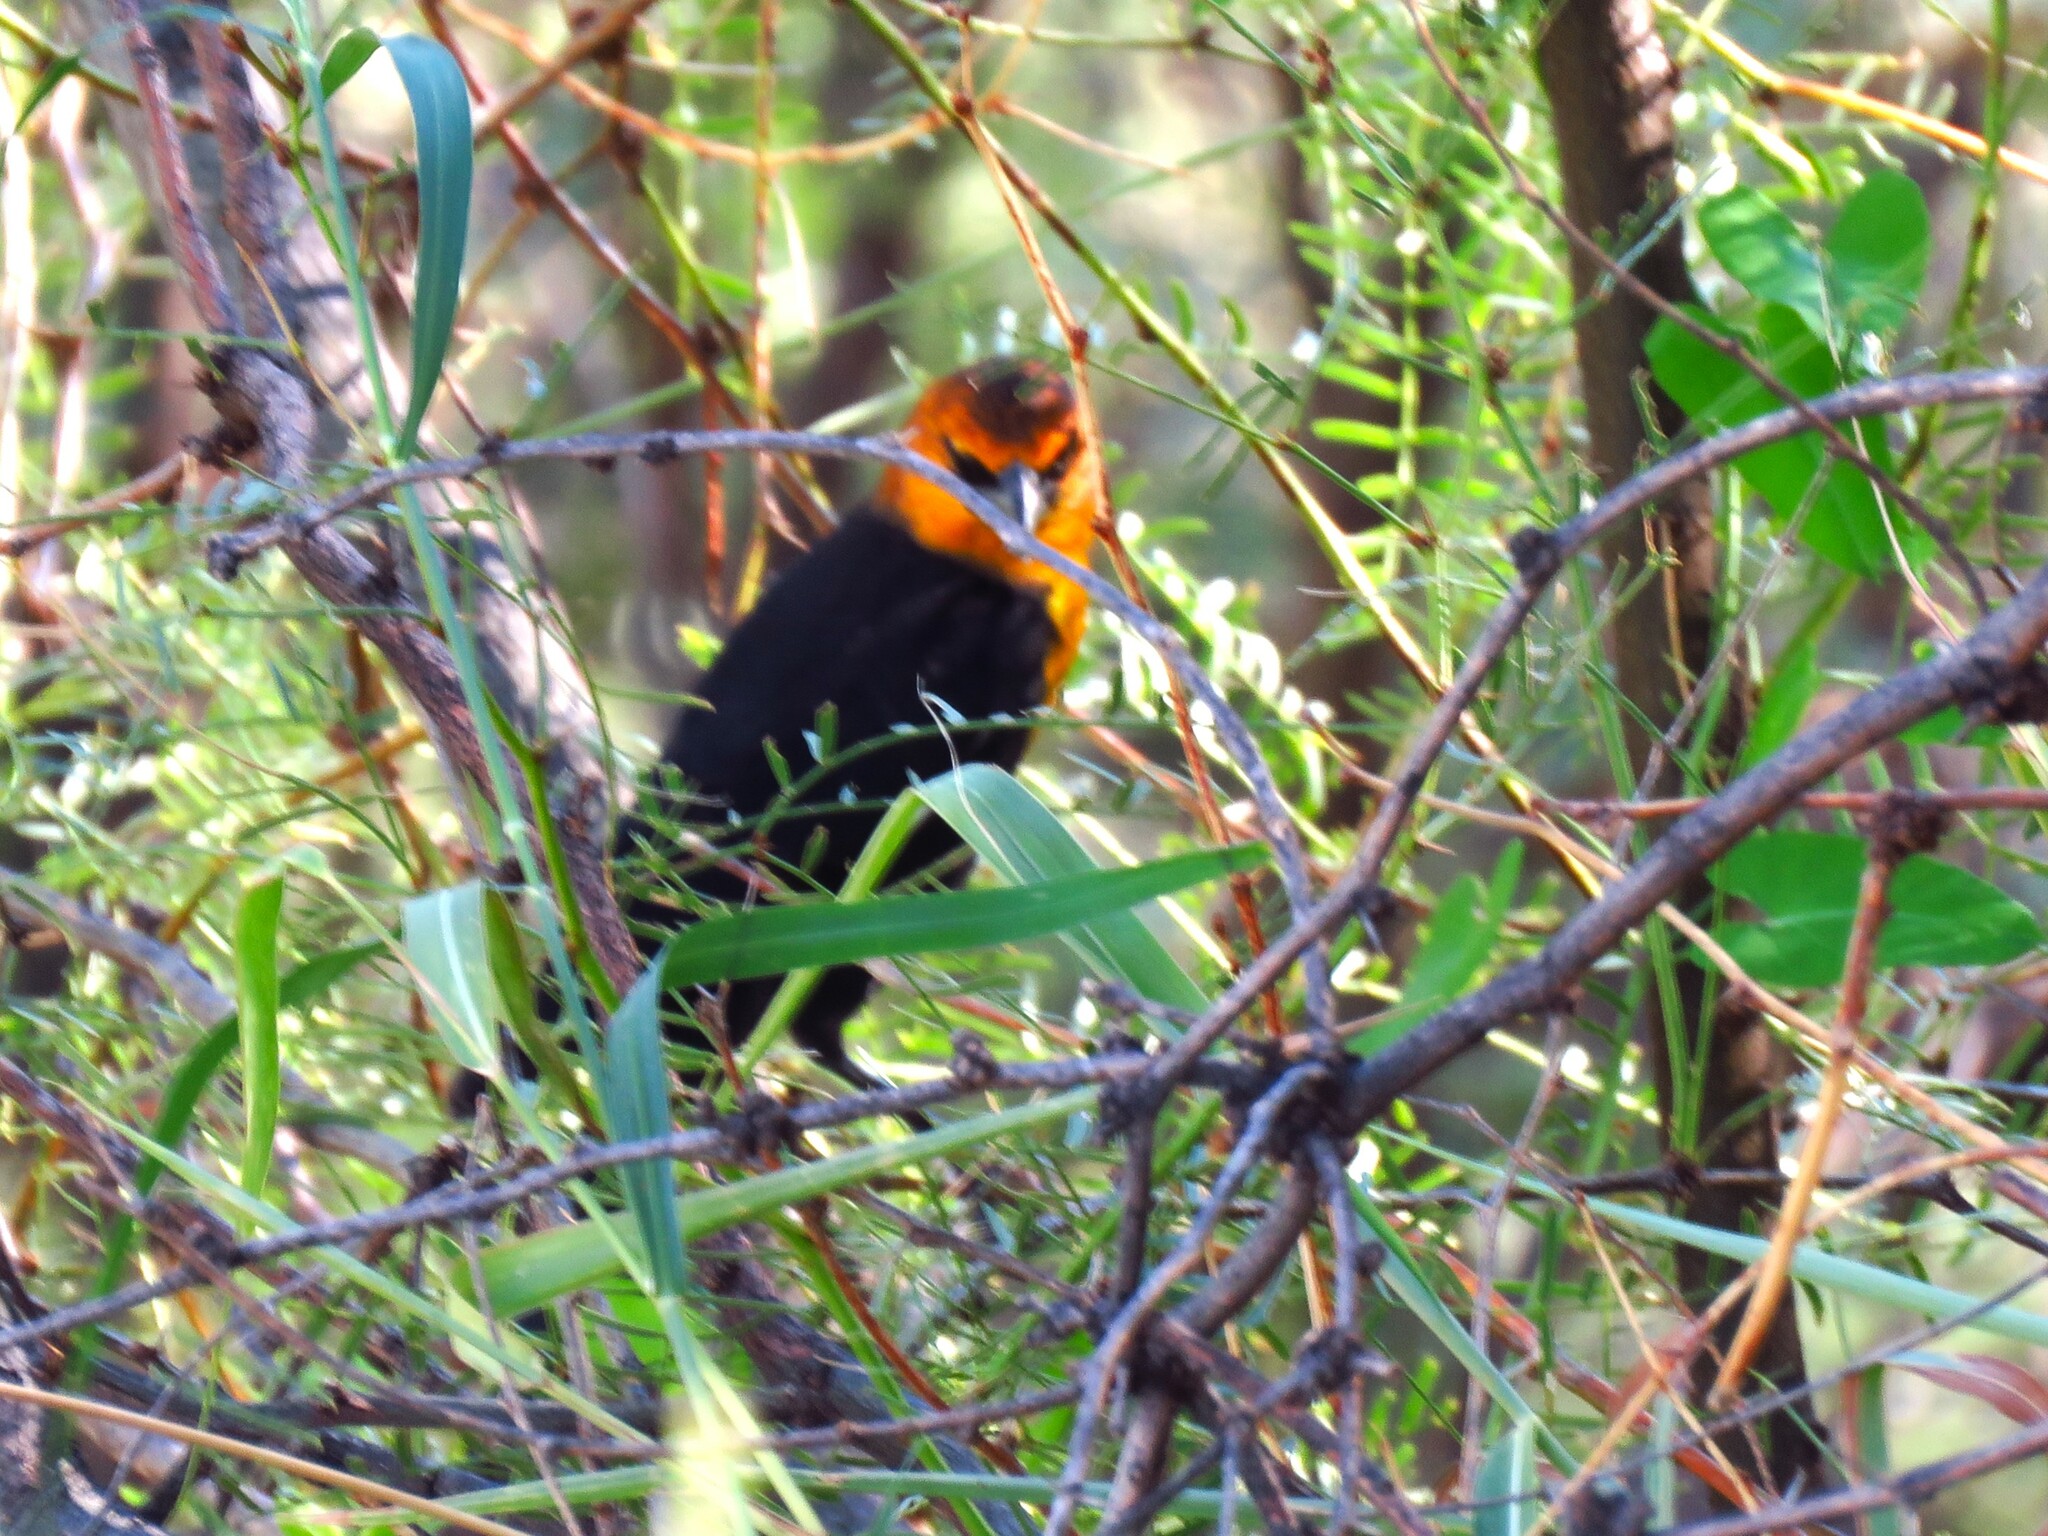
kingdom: Animalia
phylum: Chordata
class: Aves
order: Passeriformes
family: Icteridae
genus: Xanthocephalus
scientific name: Xanthocephalus xanthocephalus
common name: Yellow-headed blackbird
